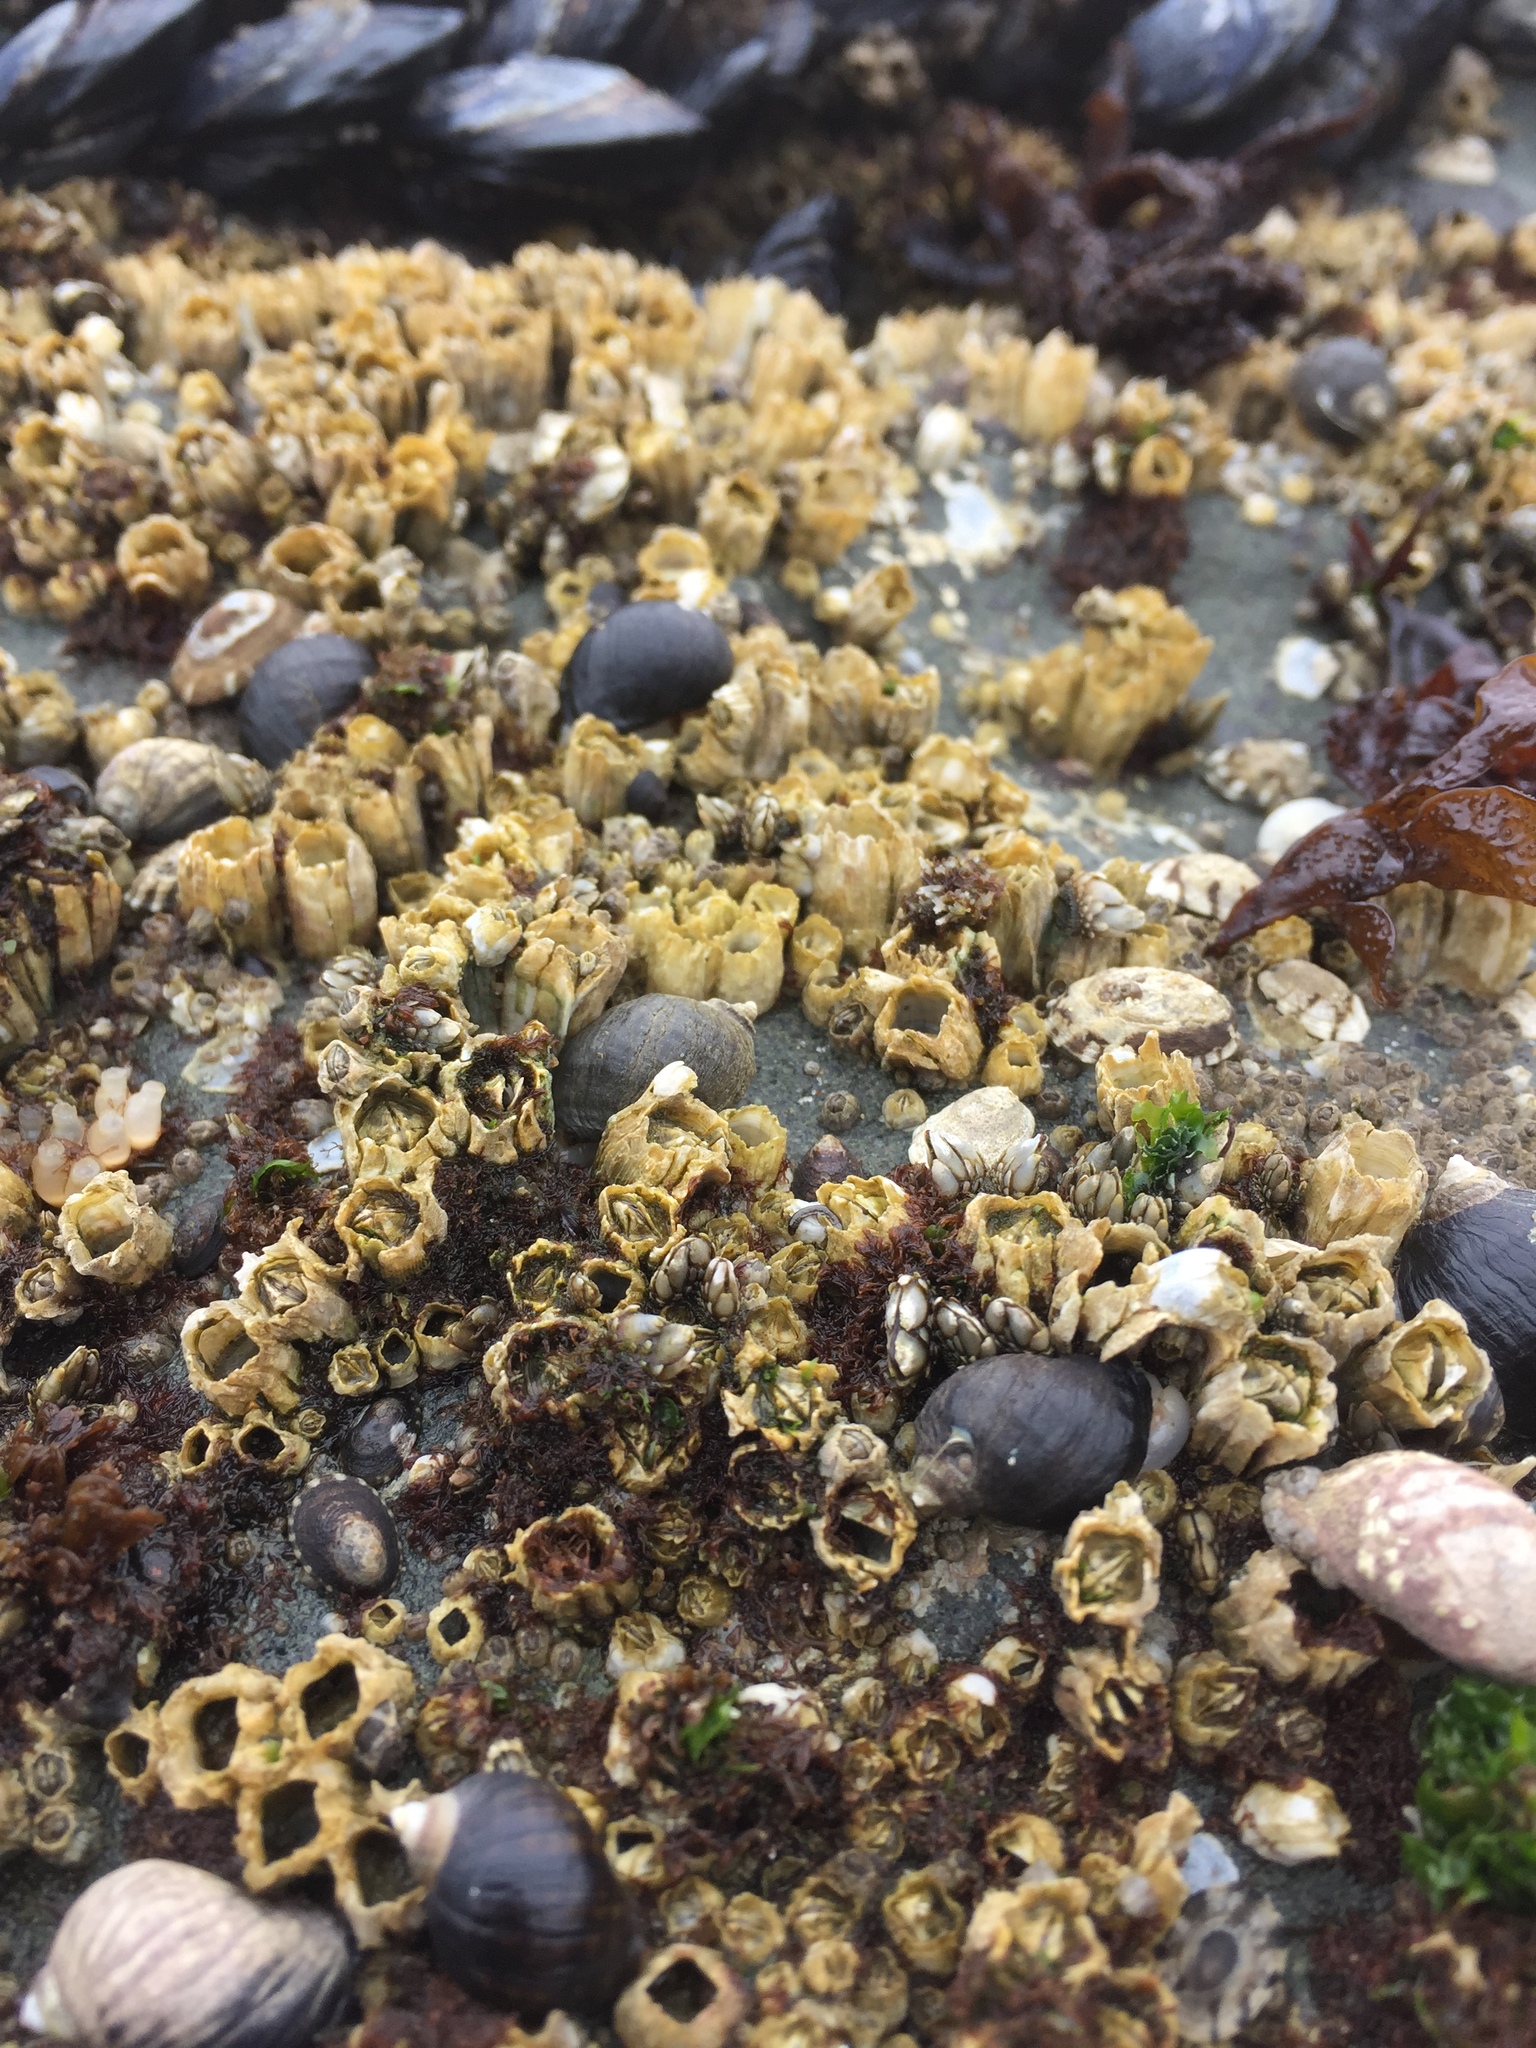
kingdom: Animalia
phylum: Arthropoda
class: Maxillopoda
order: Sessilia
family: Balanidae
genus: Balanus
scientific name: Balanus glandula
